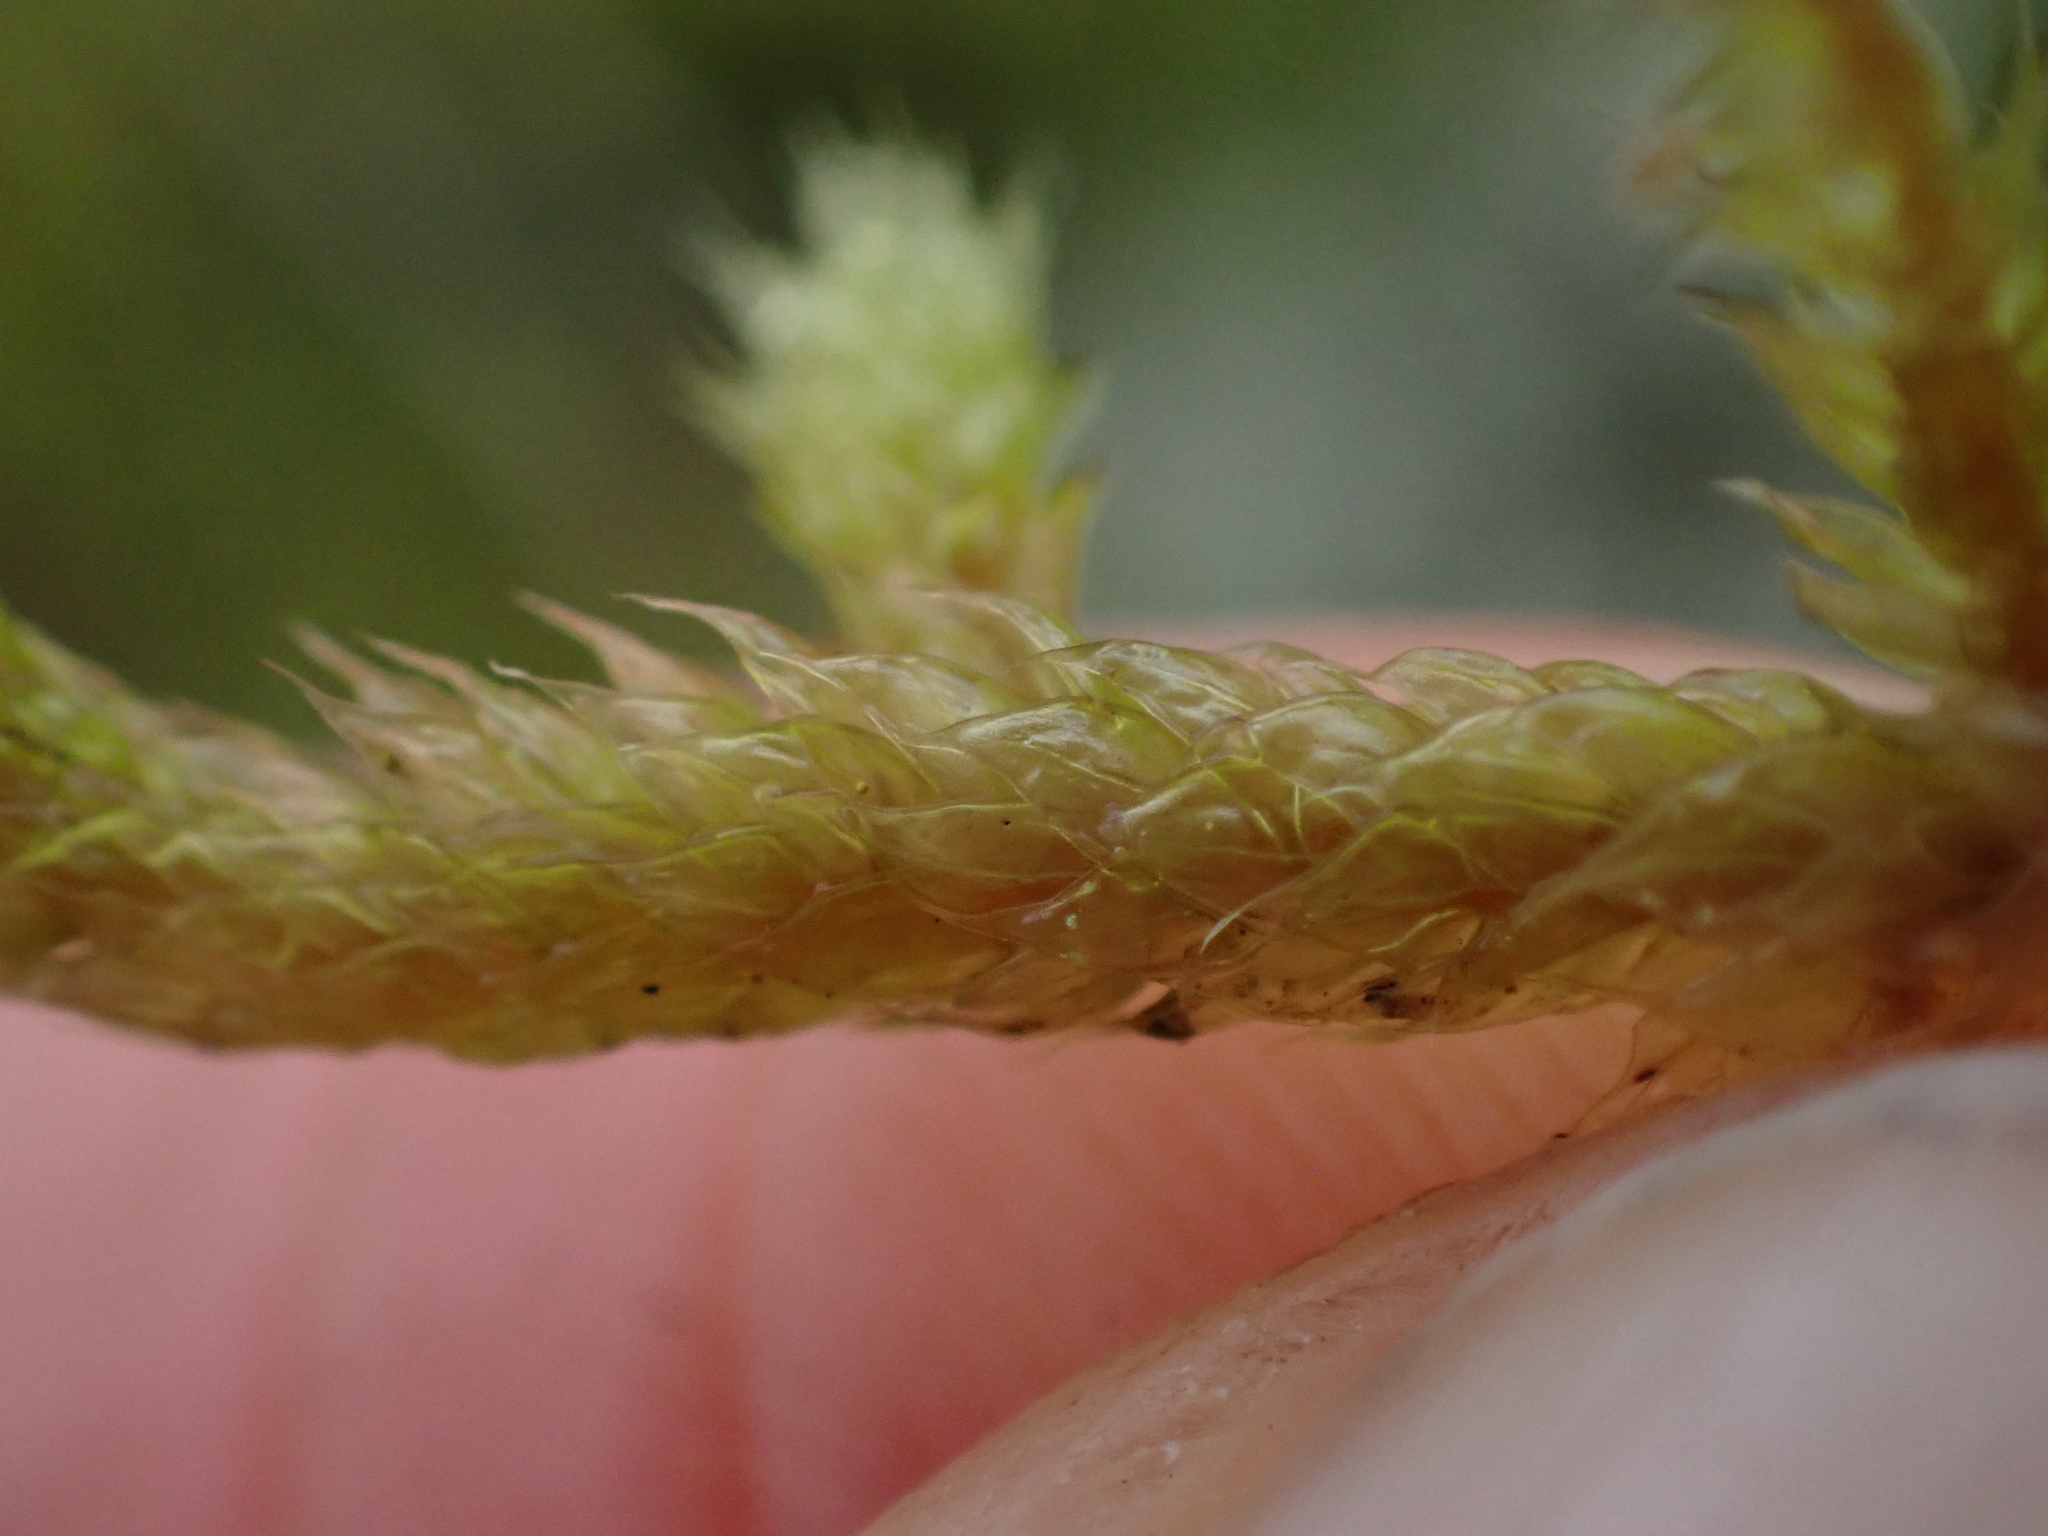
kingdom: Plantae
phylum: Bryophyta
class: Bryopsida
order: Hypnales
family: Antitrichiaceae
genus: Antitrichia
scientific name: Antitrichia curtipendula
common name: Pendulous wing-moss
